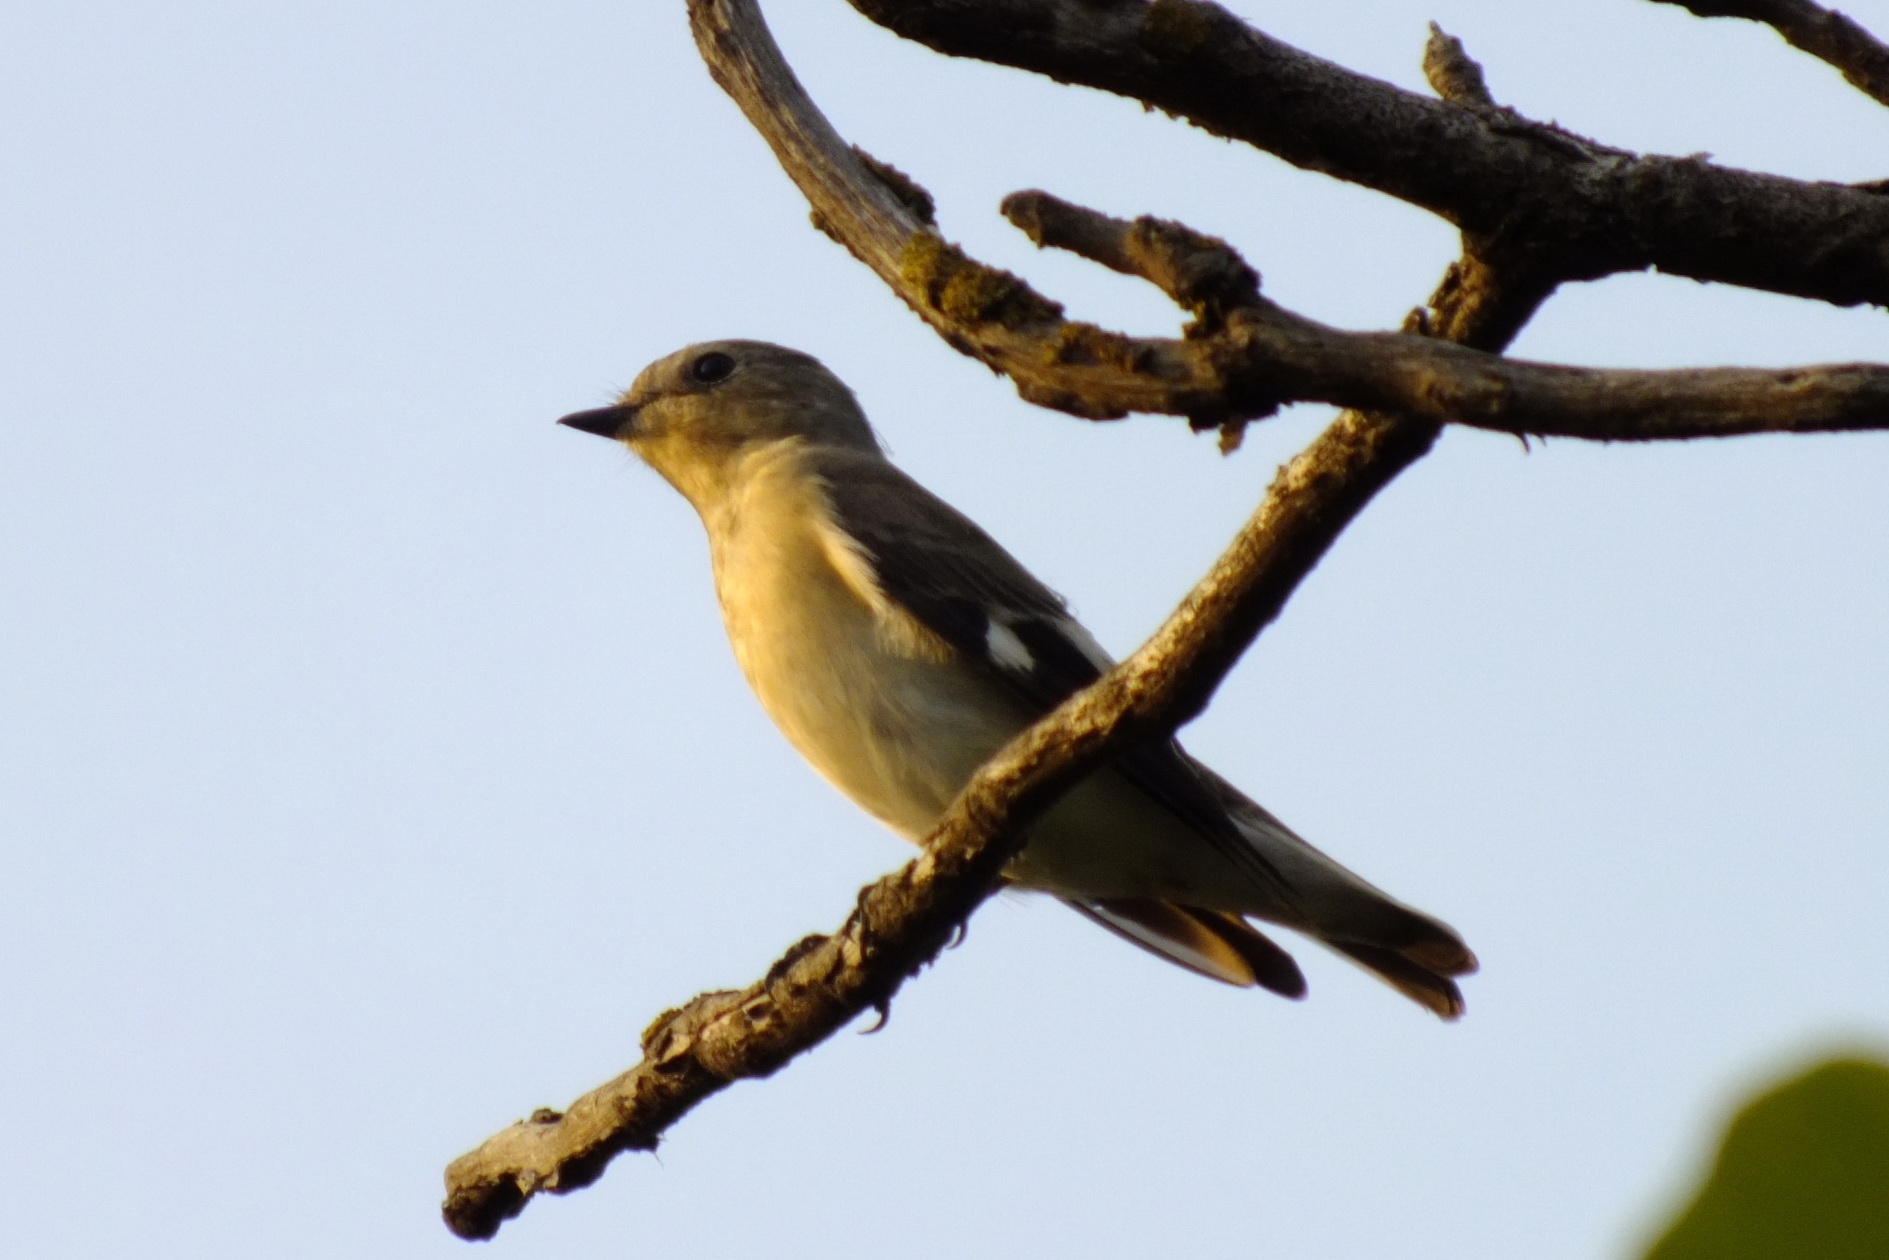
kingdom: Animalia
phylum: Chordata
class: Aves
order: Passeriformes
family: Muscicapidae
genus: Ficedula
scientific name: Ficedula semitorquata
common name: Semicollared flycatcher
